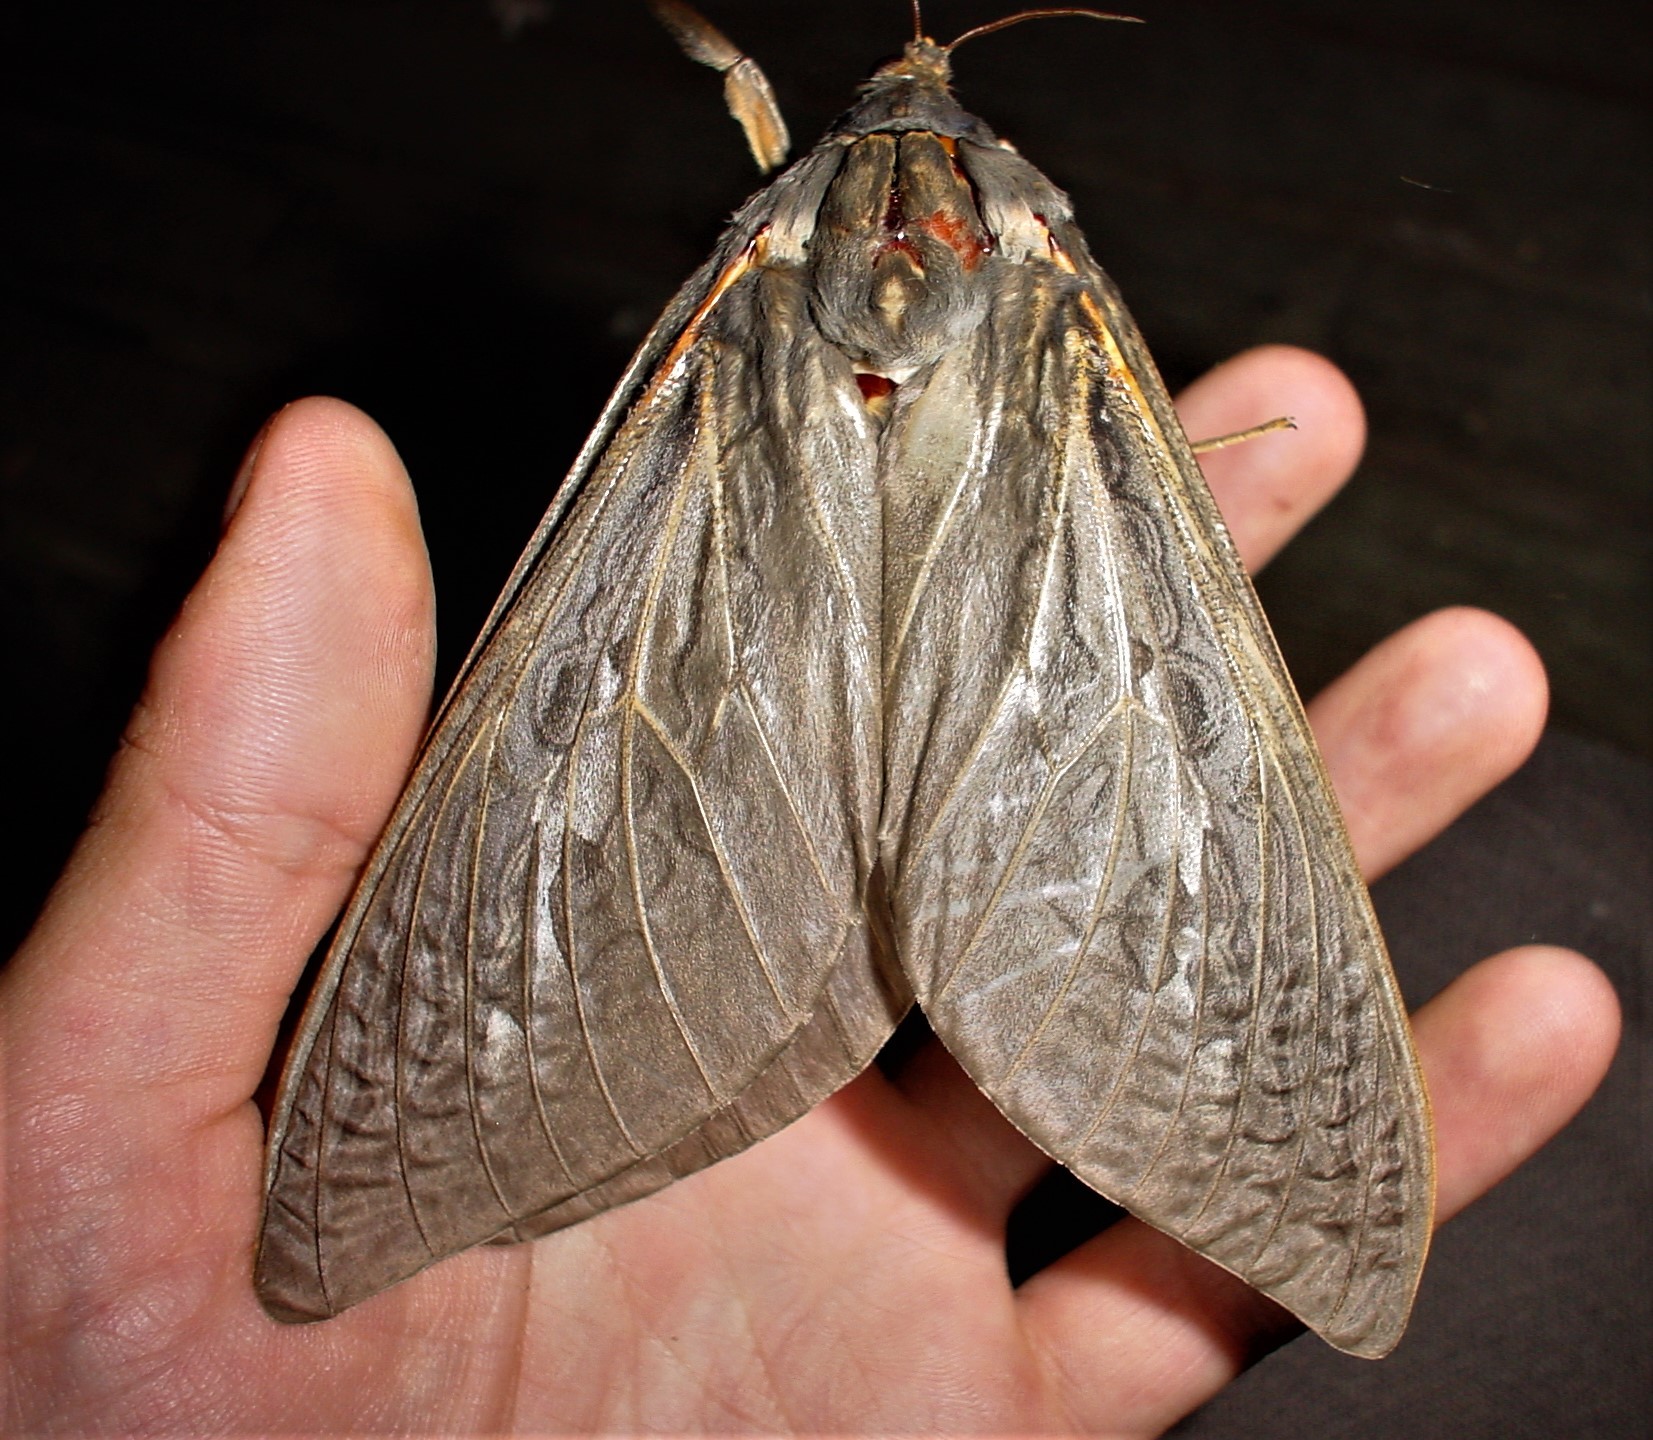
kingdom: Animalia
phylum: Arthropoda
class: Insecta
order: Lepidoptera
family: Hepialidae
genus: Abantiades
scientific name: Abantiades atripalpis
